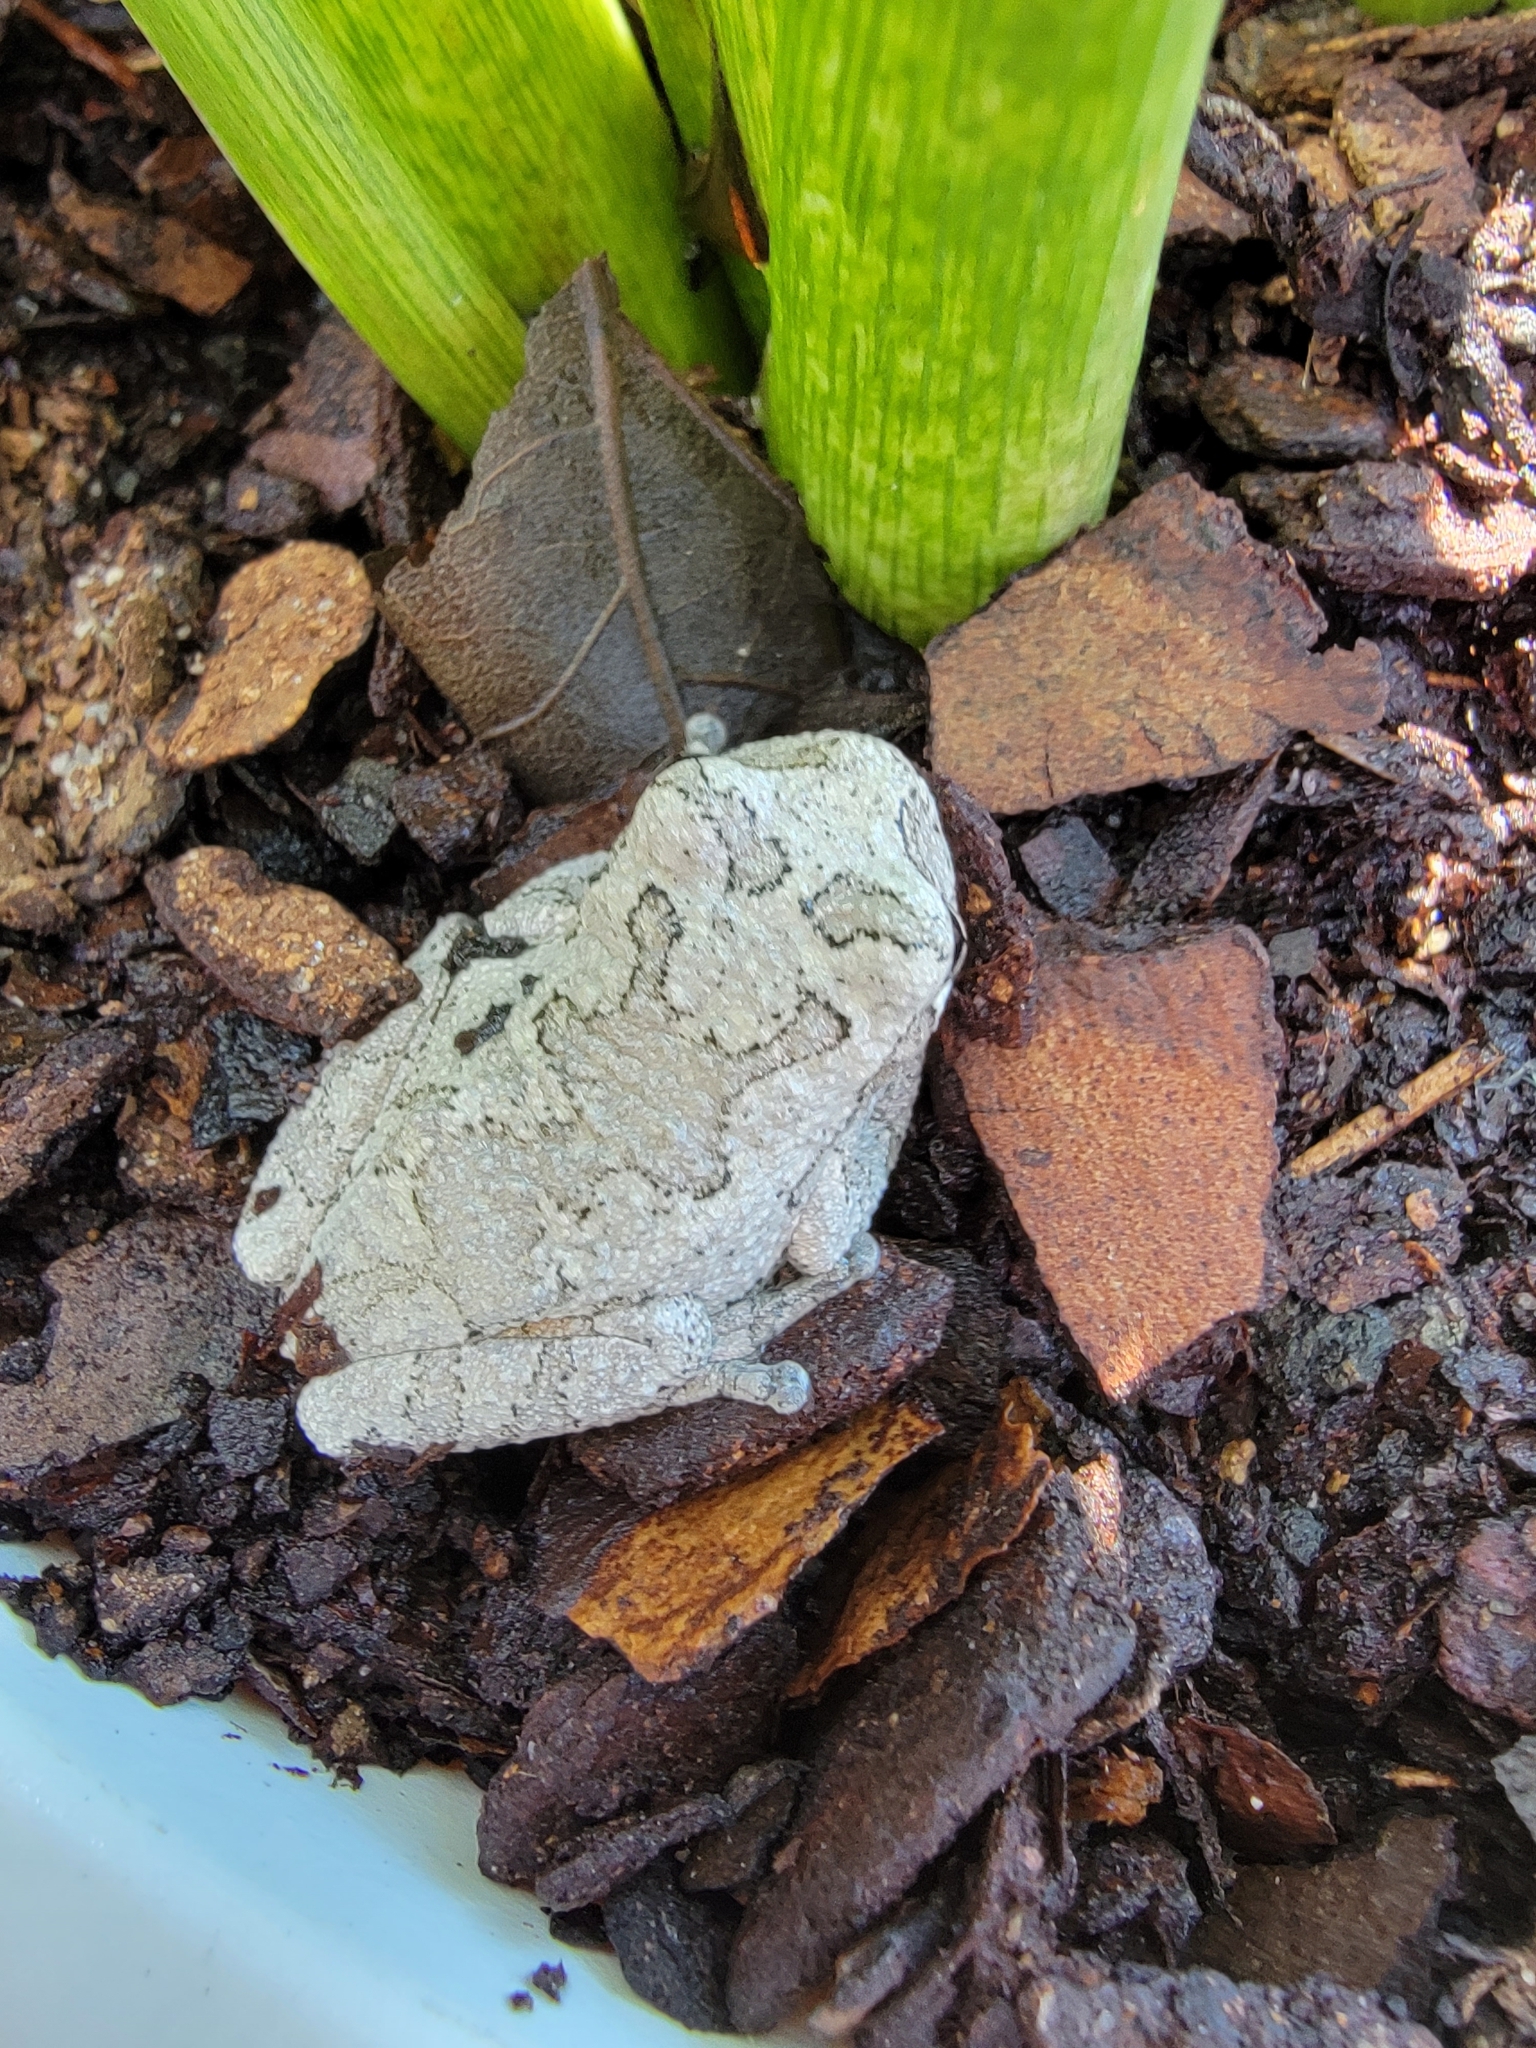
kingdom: Animalia
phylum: Chordata
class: Amphibia
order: Anura
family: Hylidae
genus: Hyla
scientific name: Hyla
